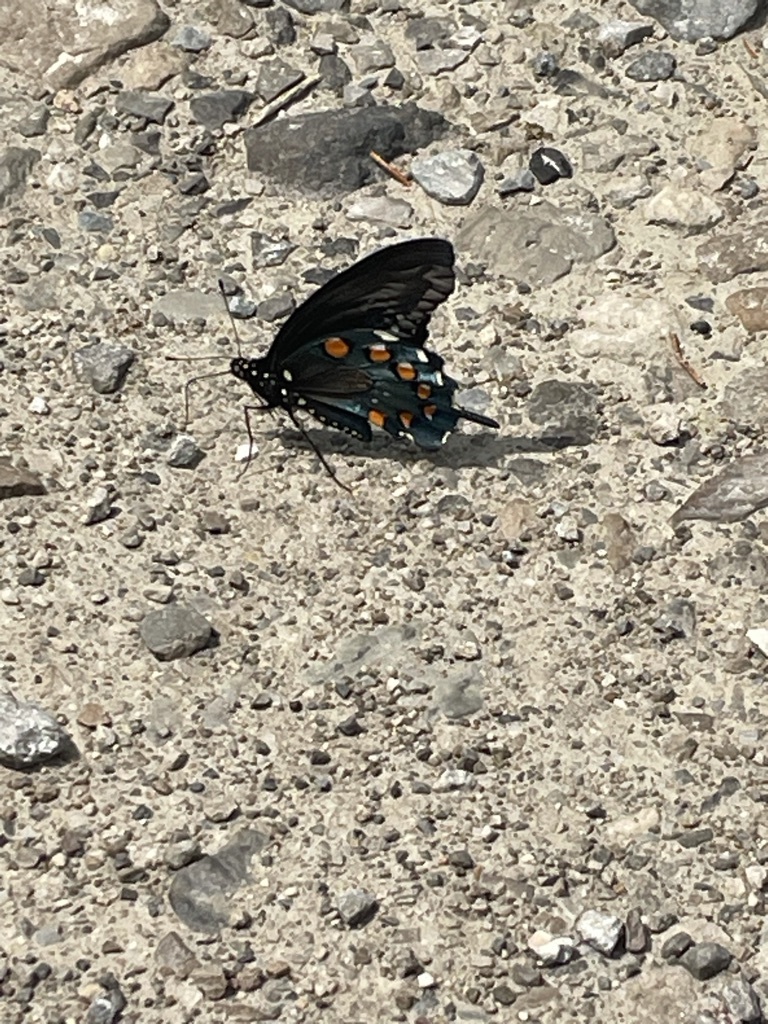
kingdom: Animalia
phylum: Arthropoda
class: Insecta
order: Lepidoptera
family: Papilionidae
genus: Battus
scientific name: Battus philenor
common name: Pipevine swallowtail
